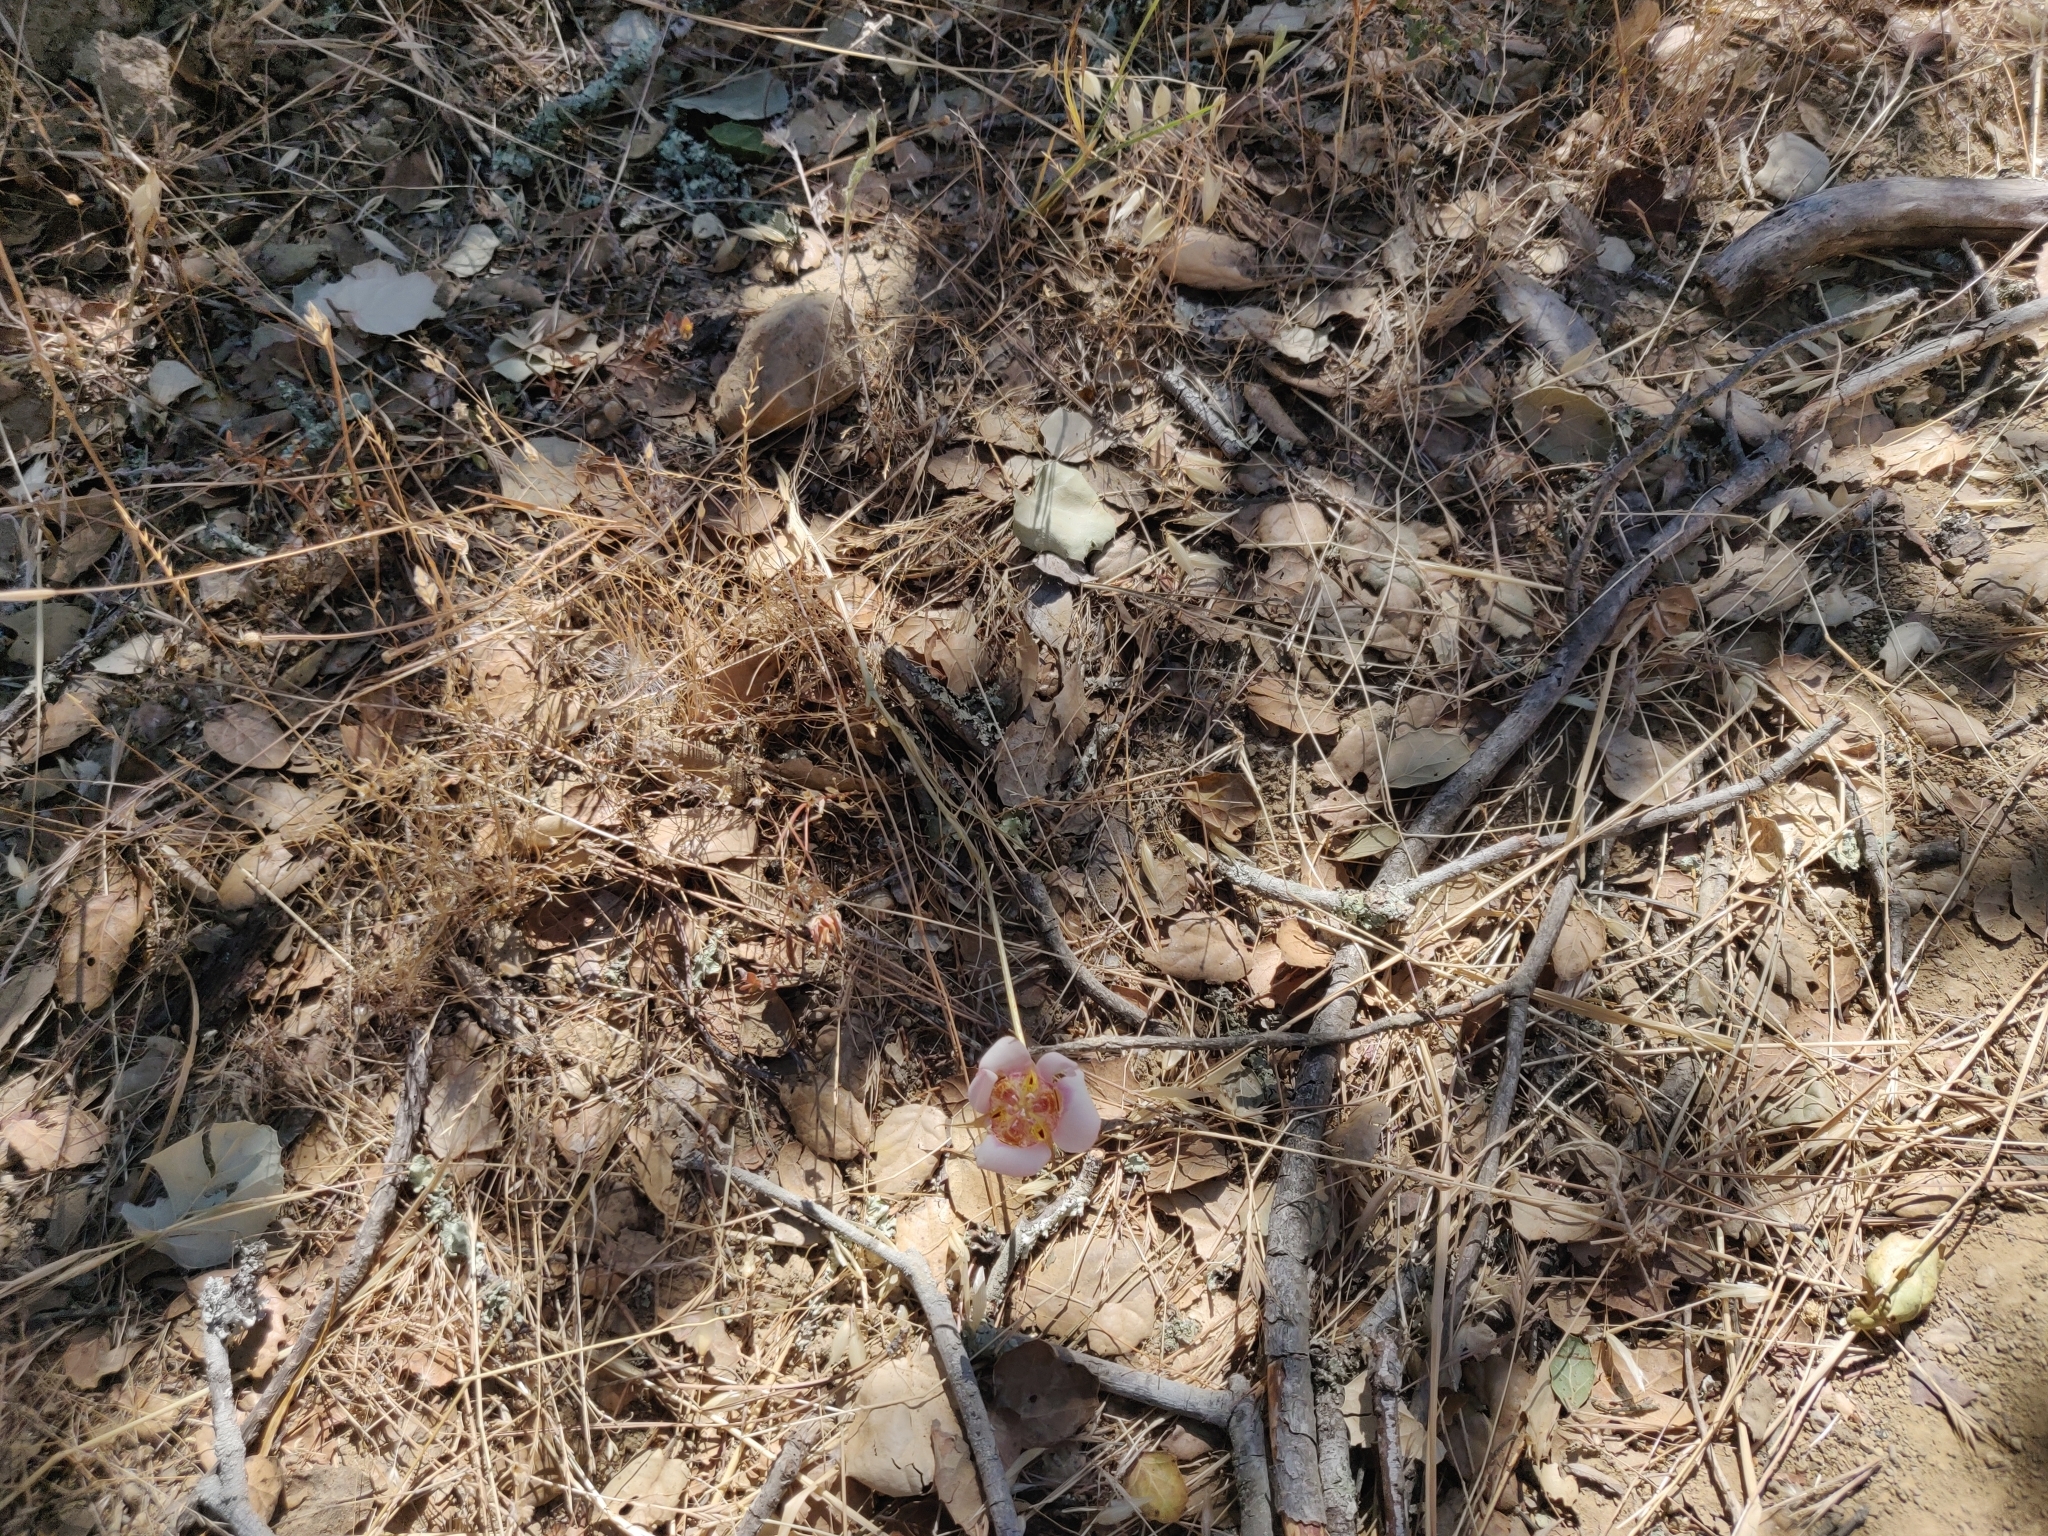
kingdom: Plantae
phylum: Tracheophyta
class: Liliopsida
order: Liliales
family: Liliaceae
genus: Calochortus
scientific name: Calochortus argillosus
